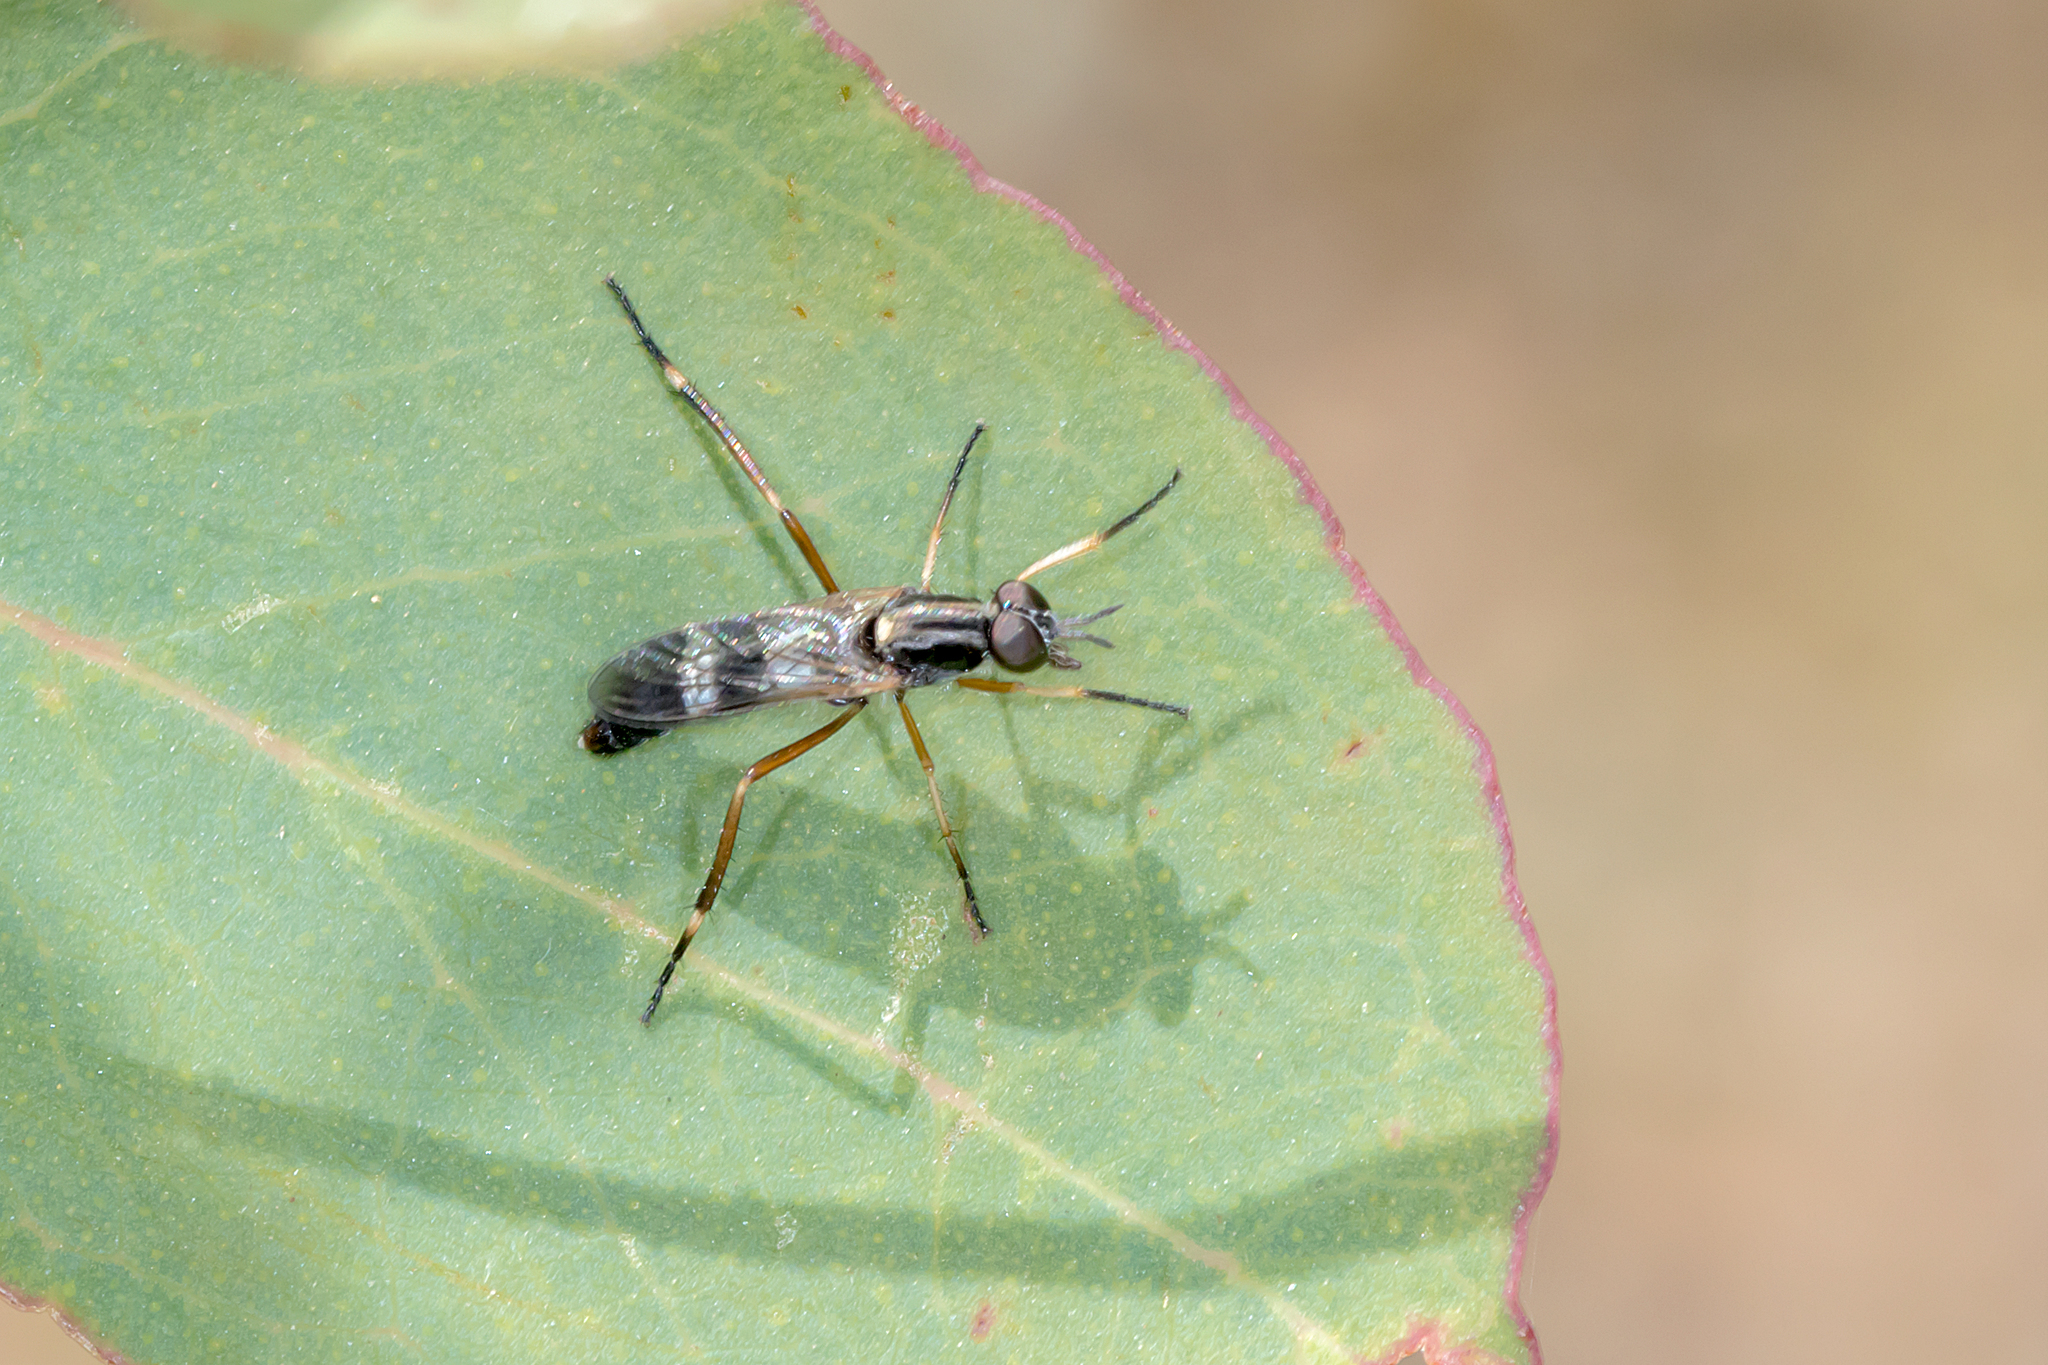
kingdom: Animalia
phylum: Arthropoda
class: Insecta
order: Diptera
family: Therevidae
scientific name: Therevidae
